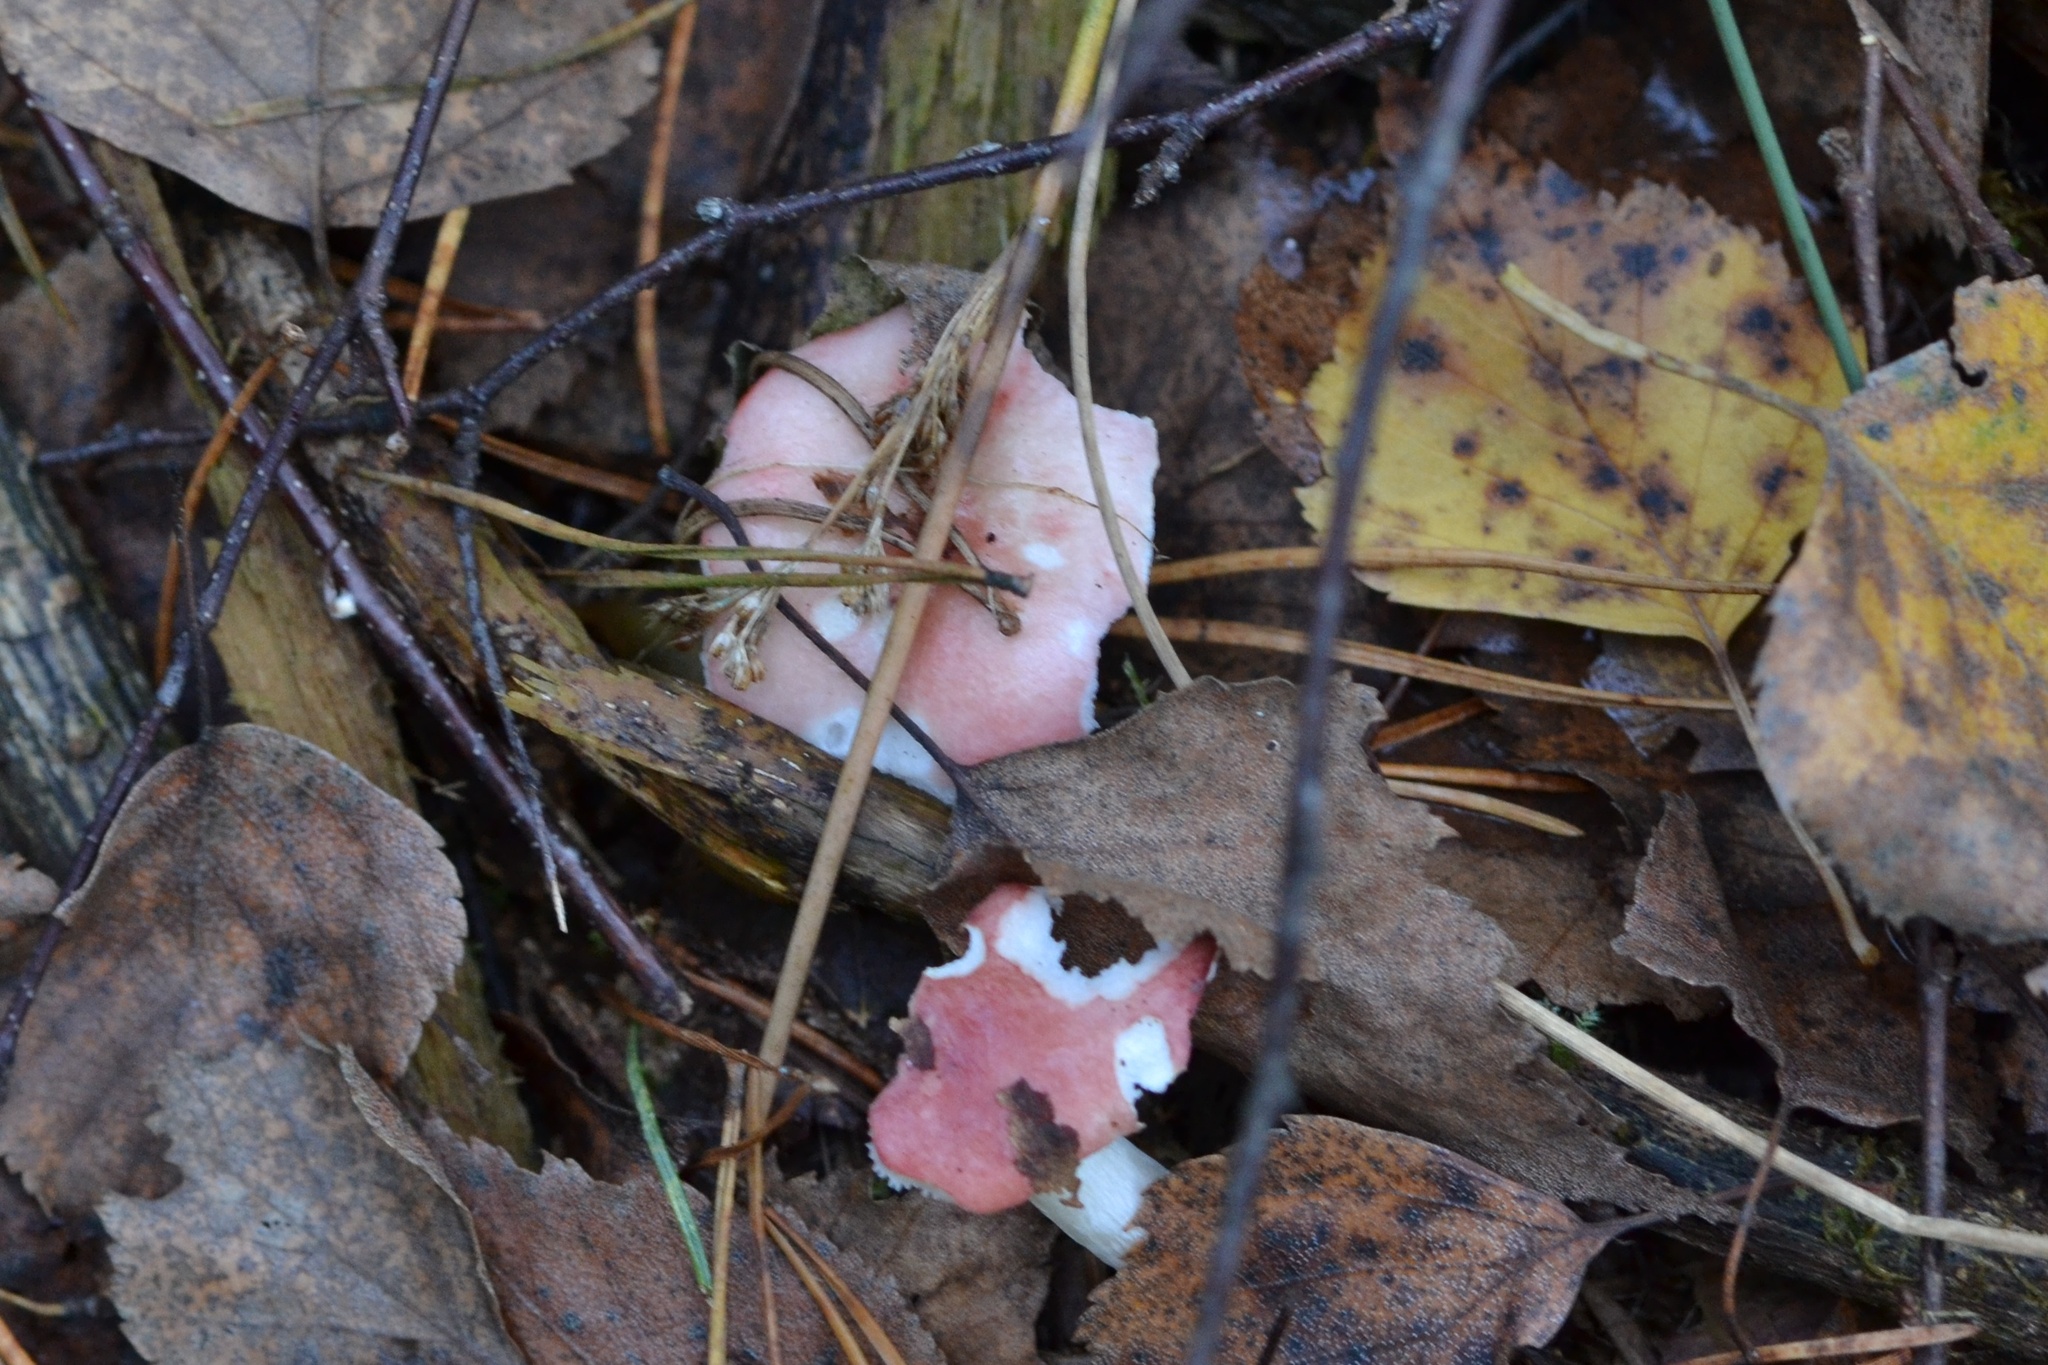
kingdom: Fungi
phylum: Basidiomycota
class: Agaricomycetes
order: Russulales
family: Russulaceae
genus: Russula
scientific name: Russula betularum
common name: Birch brittlegill
